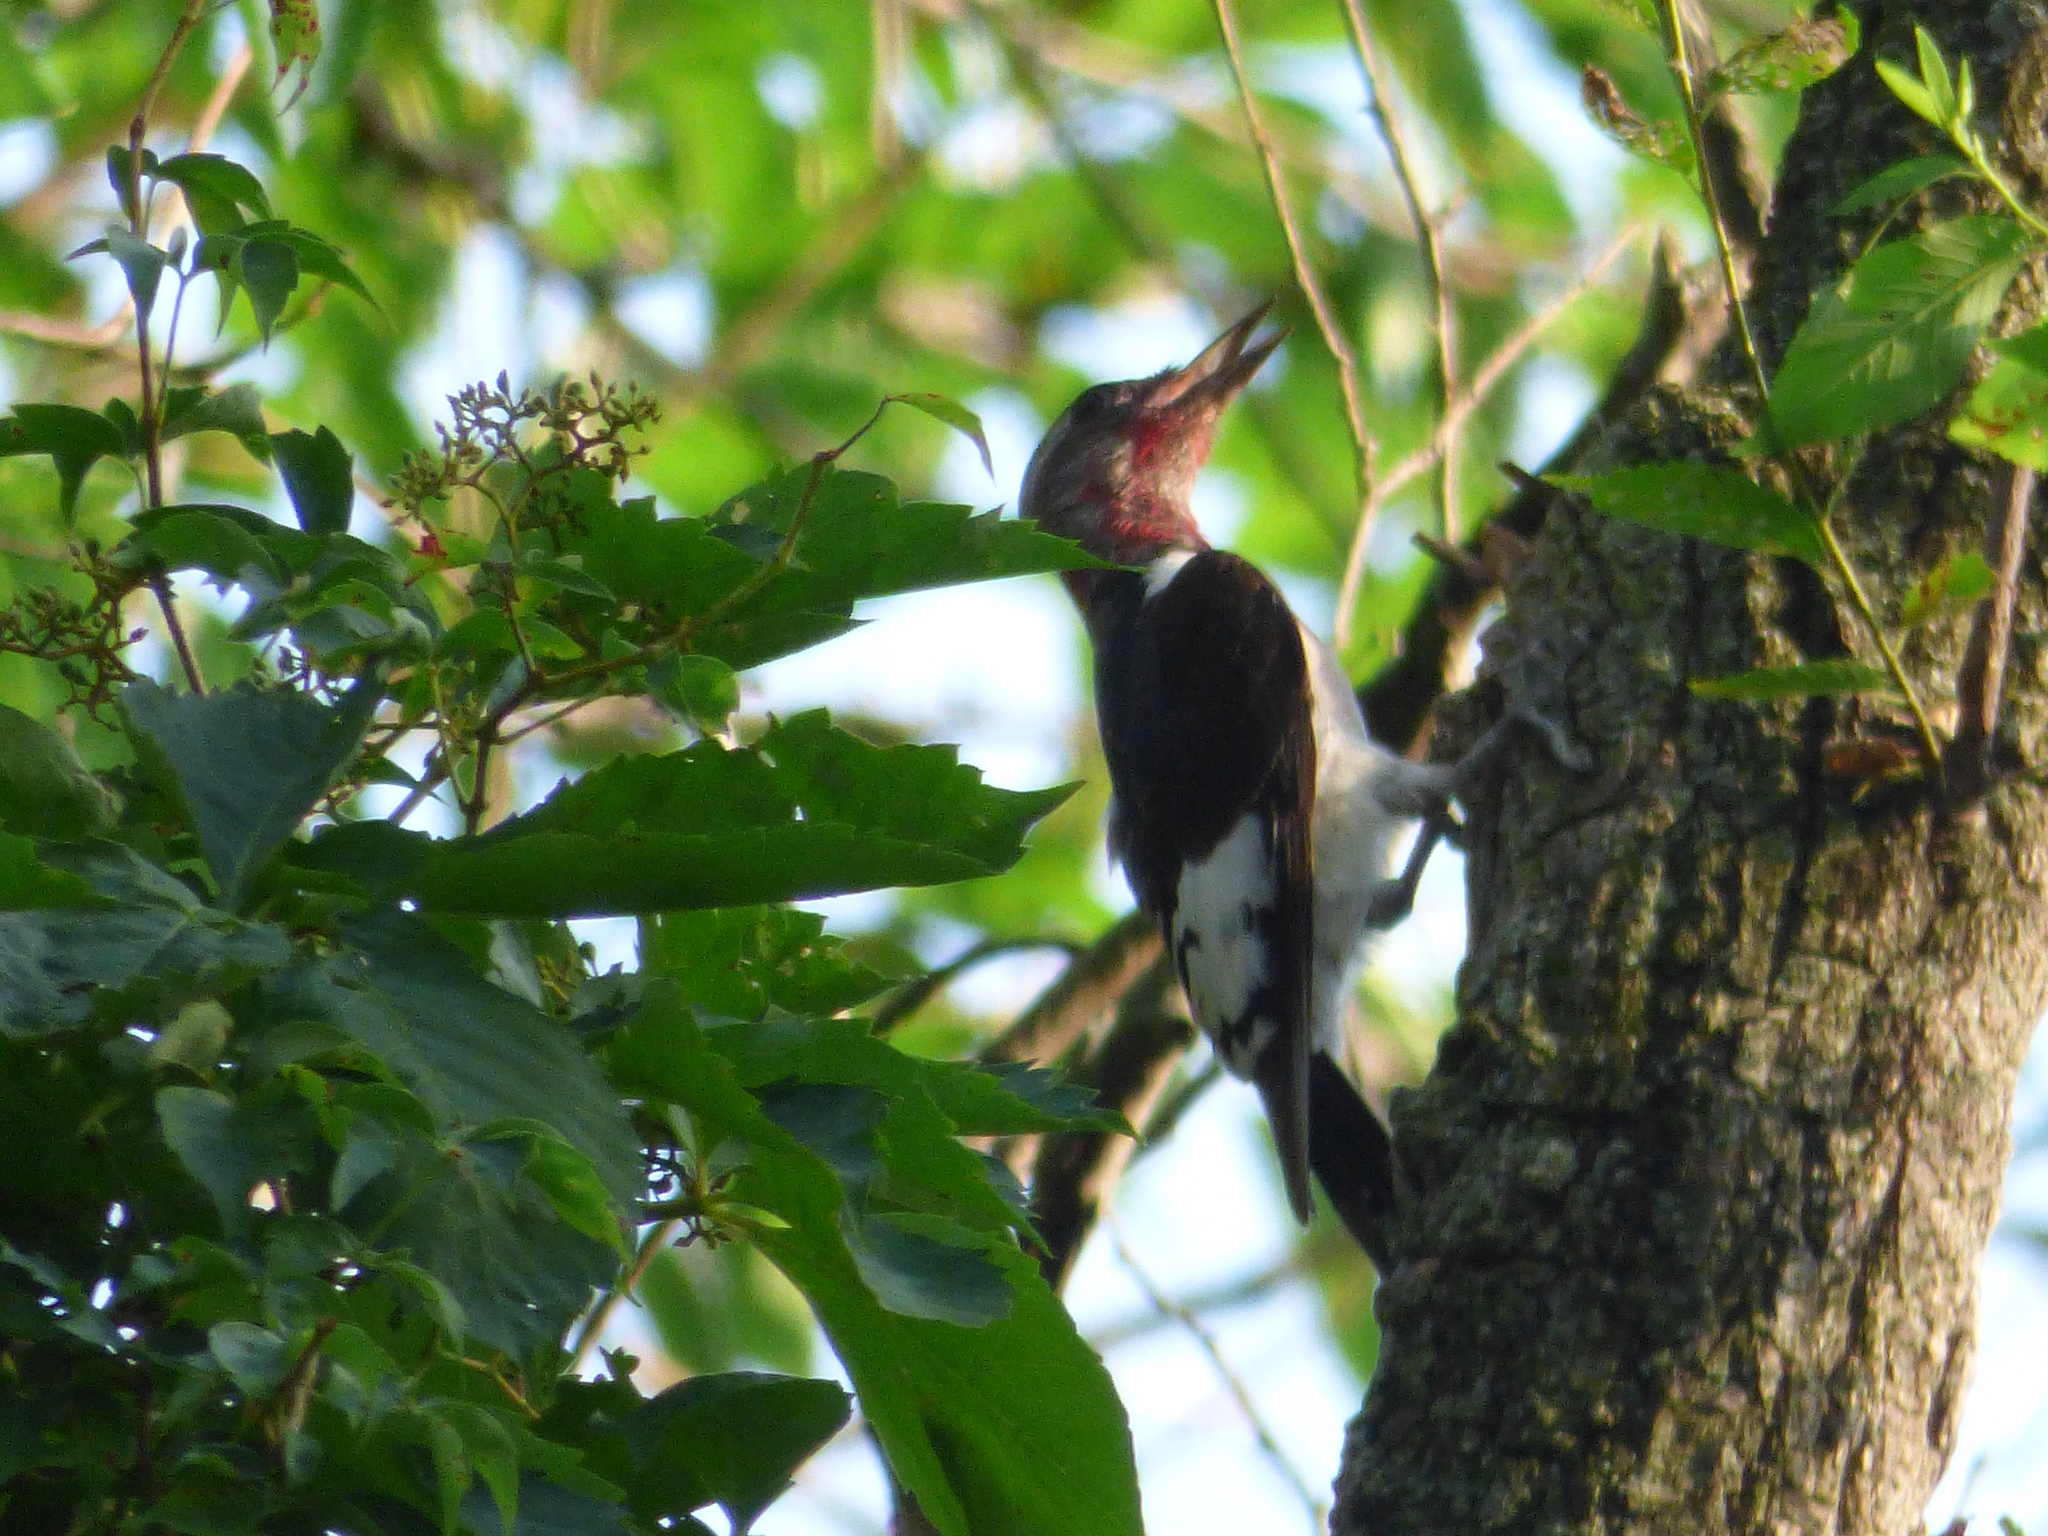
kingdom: Animalia
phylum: Chordata
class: Aves
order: Piciformes
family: Picidae
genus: Melanerpes
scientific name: Melanerpes erythrocephalus
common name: Red-headed woodpecker
